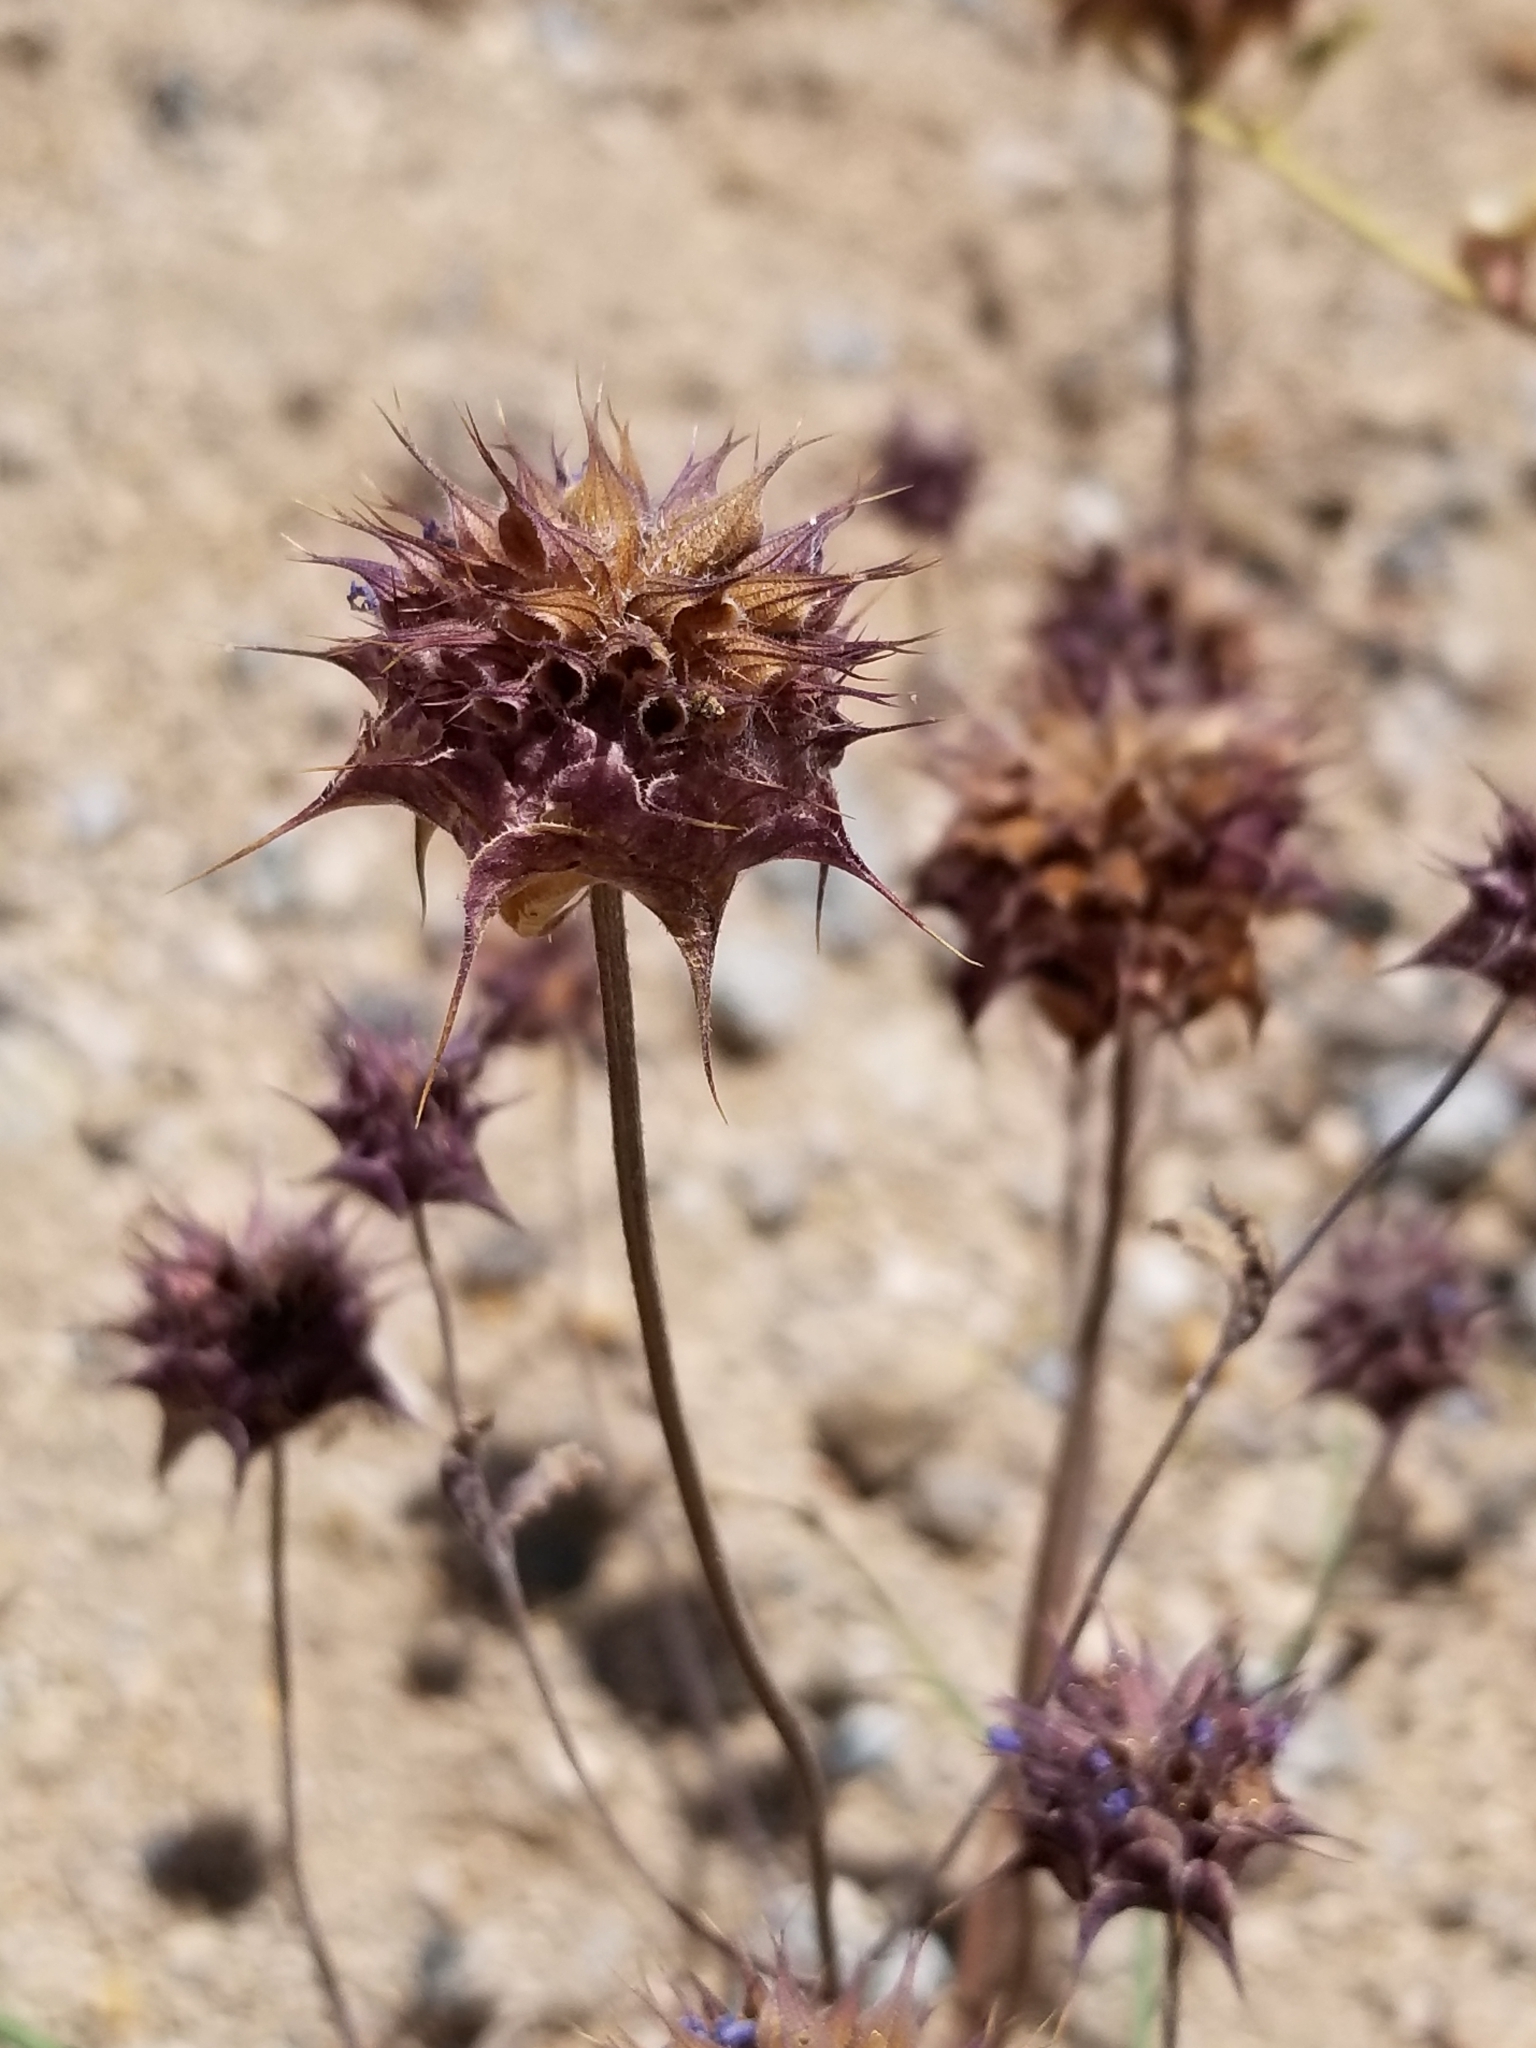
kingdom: Plantae
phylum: Tracheophyta
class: Magnoliopsida
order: Lamiales
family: Lamiaceae
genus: Salvia
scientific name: Salvia columbariae
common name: Chia
